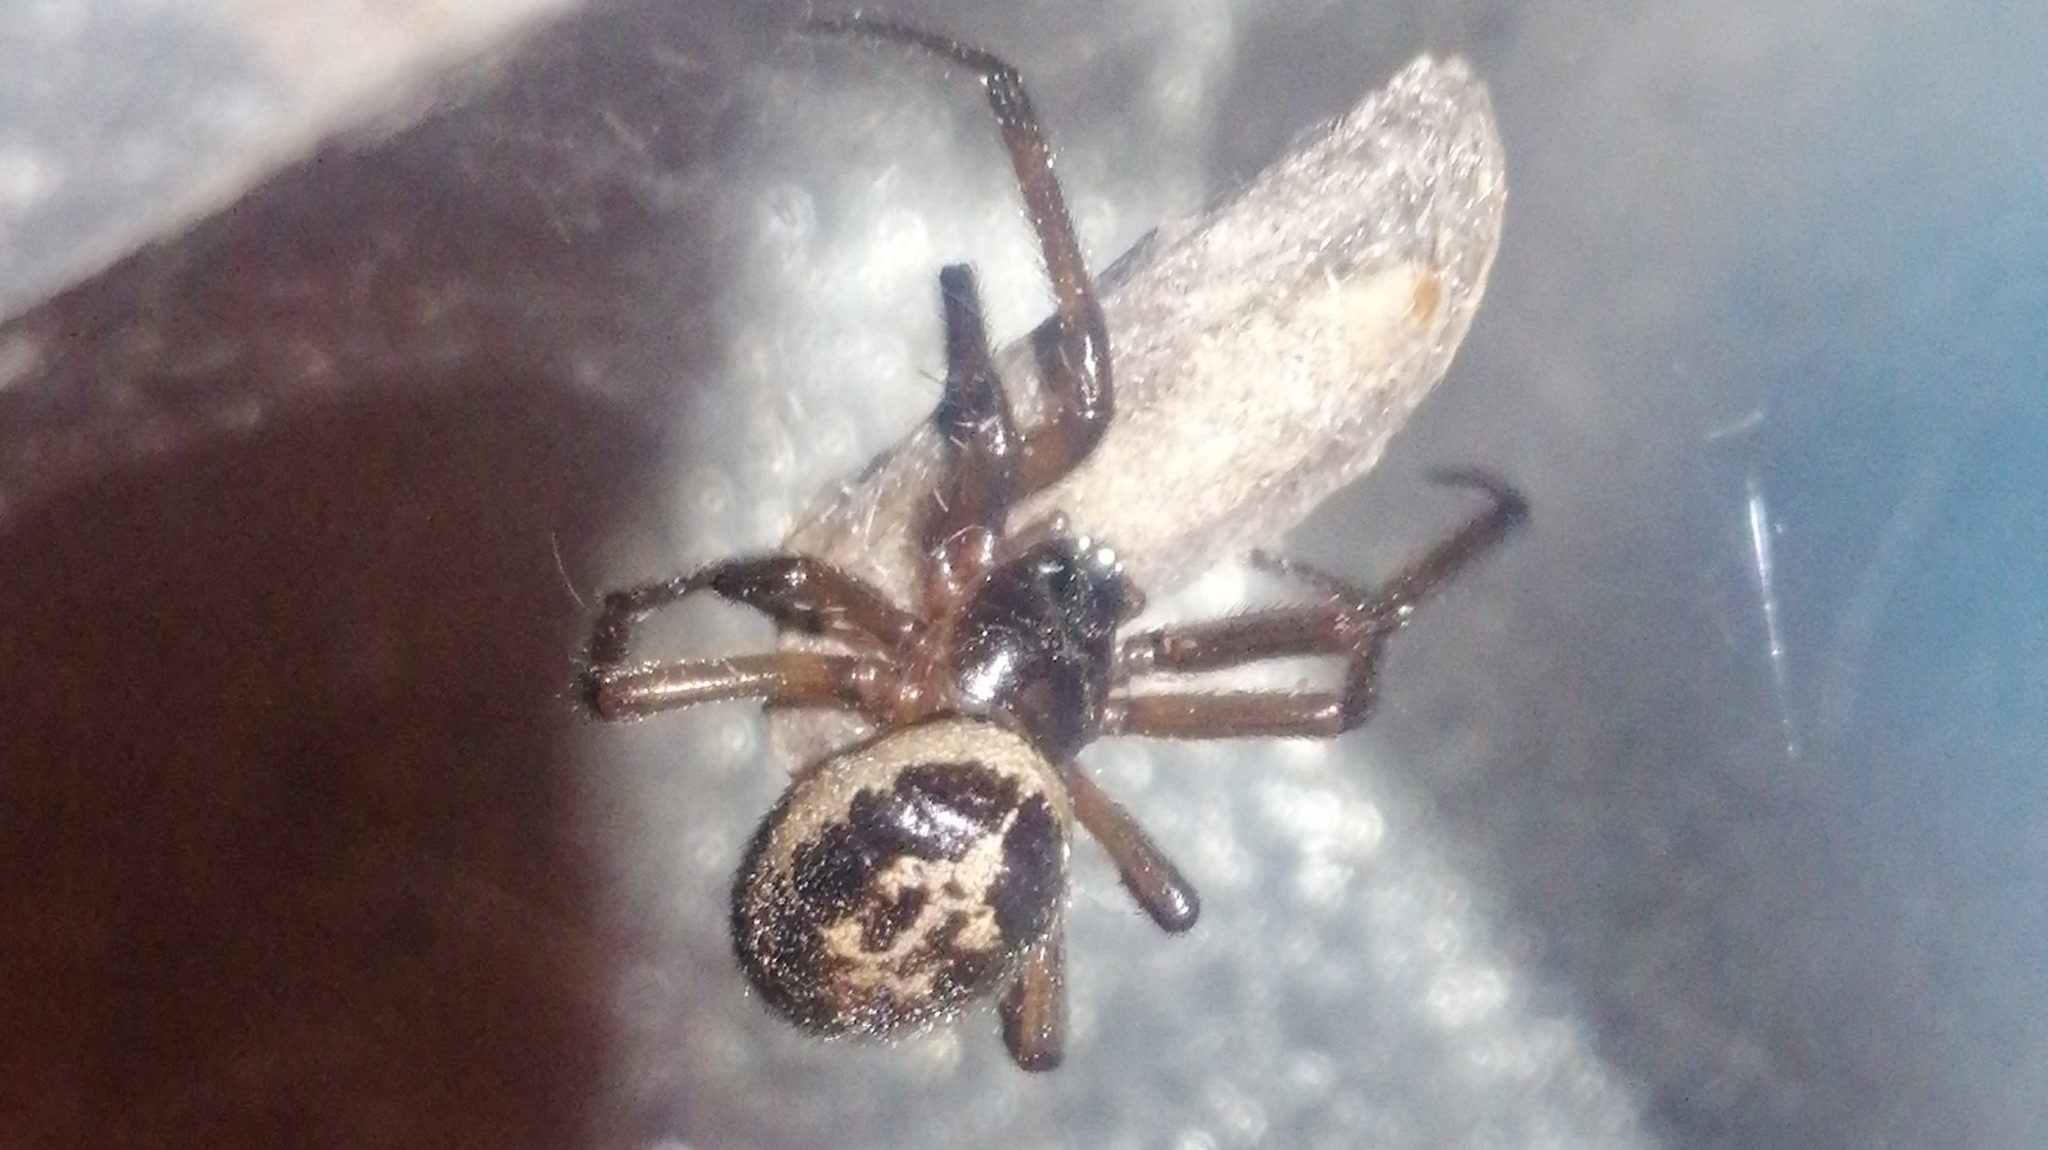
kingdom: Animalia
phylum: Arthropoda
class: Arachnida
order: Araneae
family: Theridiidae
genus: Steatoda
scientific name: Steatoda nobilis
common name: Cobweb weaver
